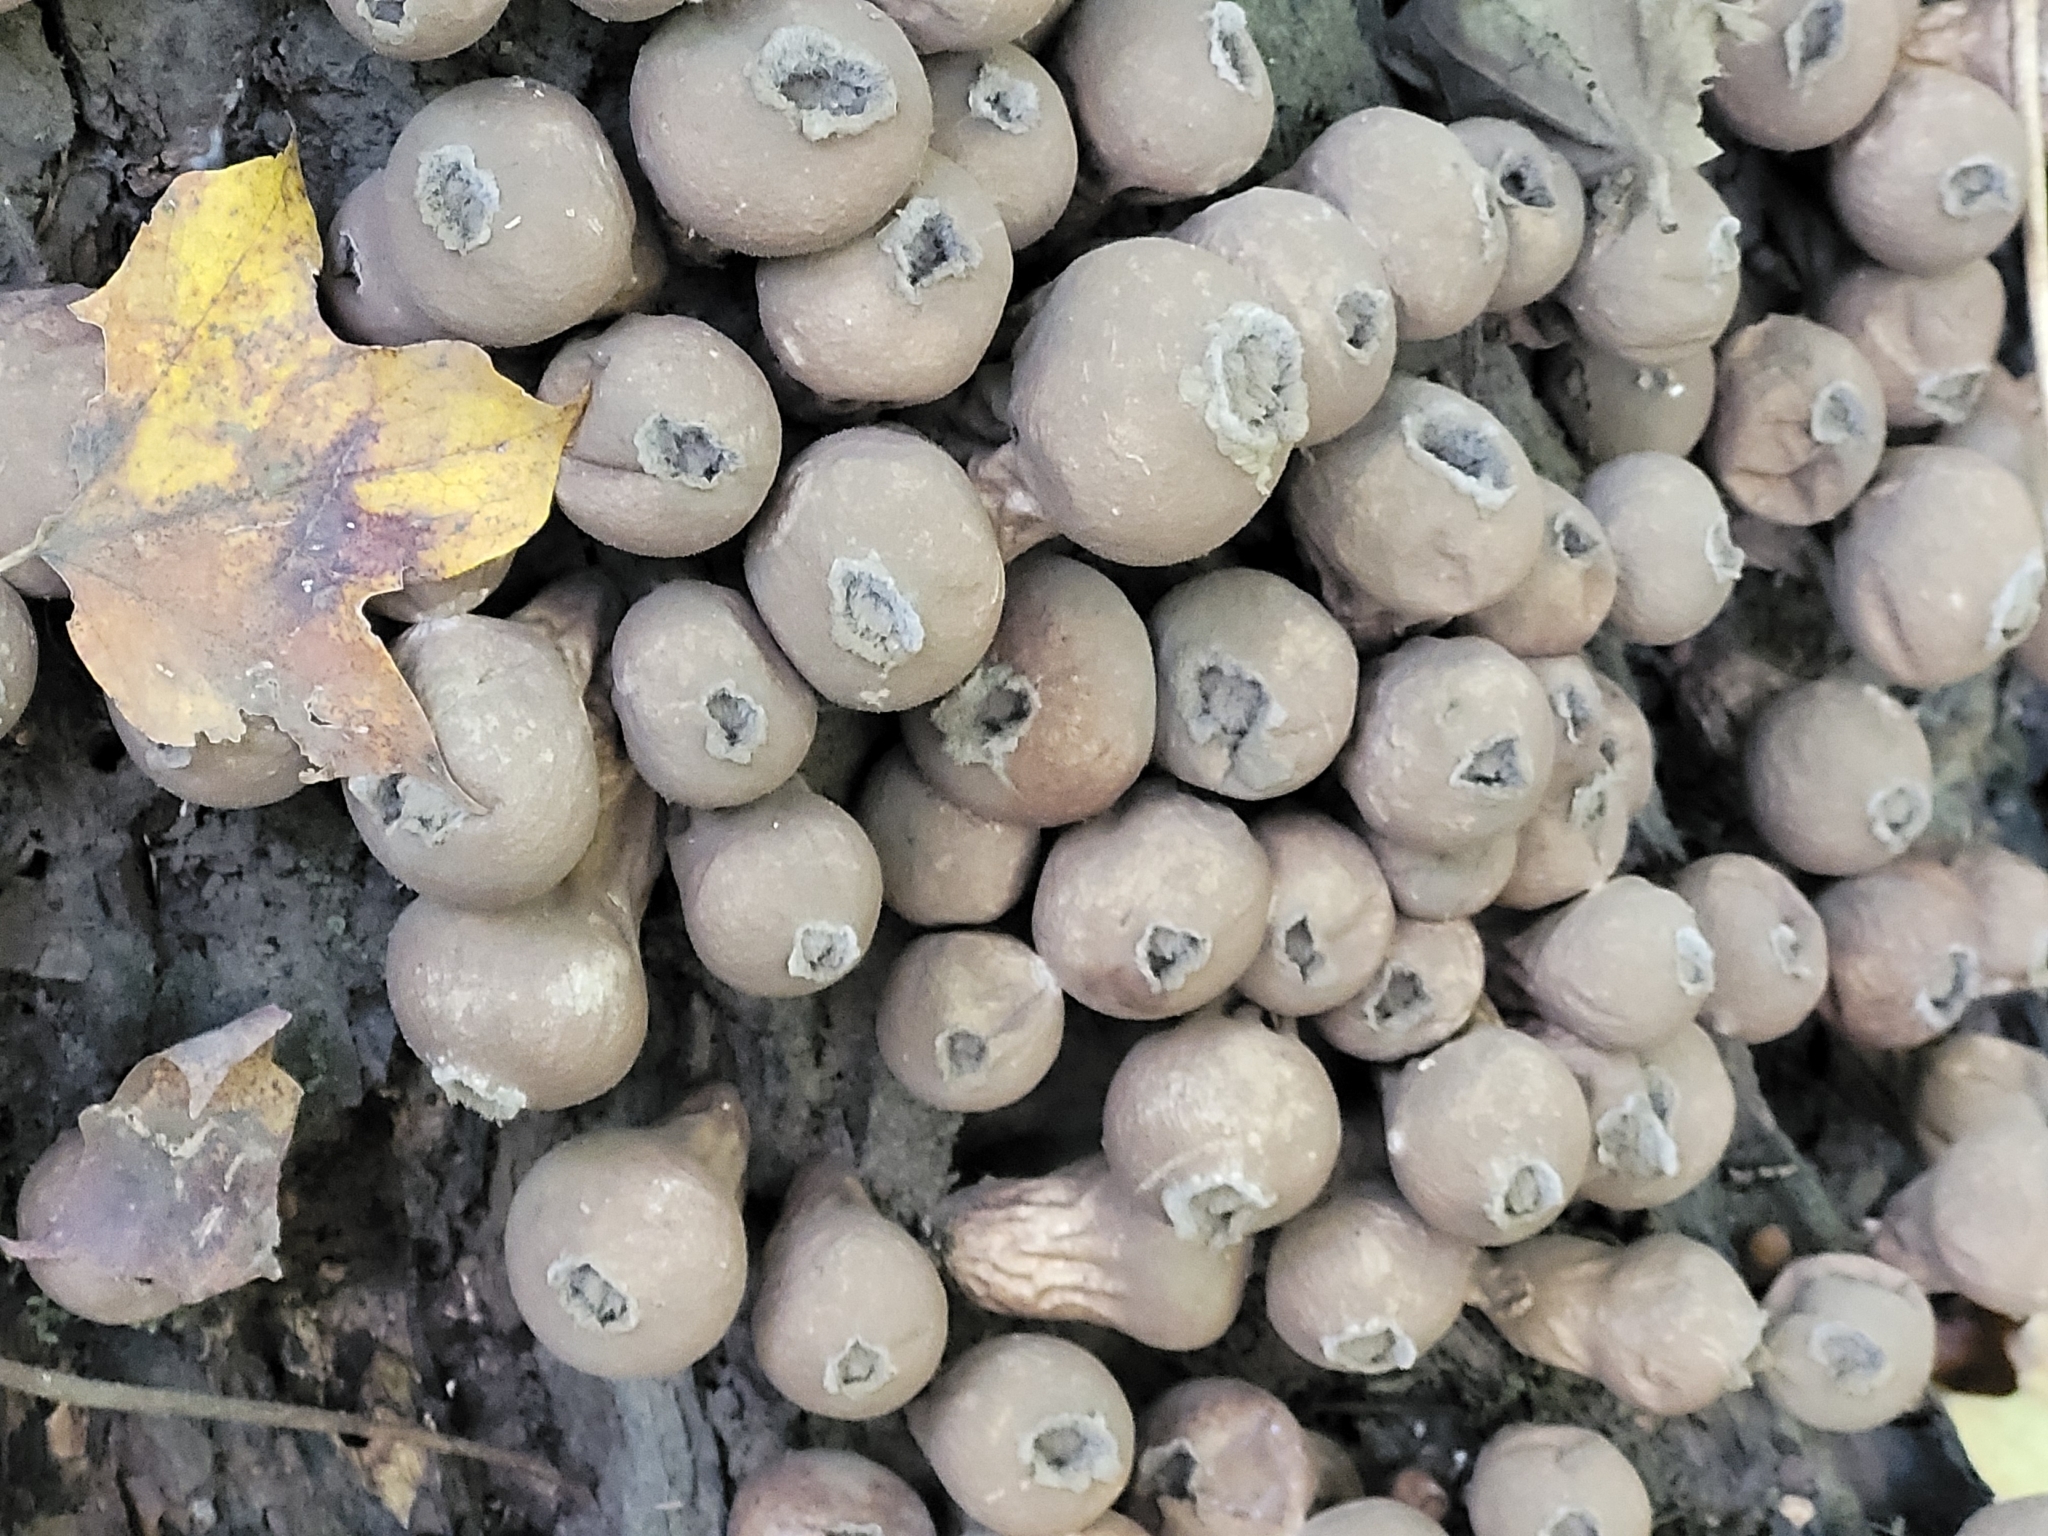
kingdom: Fungi
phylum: Basidiomycota
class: Agaricomycetes
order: Agaricales
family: Lycoperdaceae
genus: Apioperdon
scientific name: Apioperdon pyriforme
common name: Pear-shaped puffball
